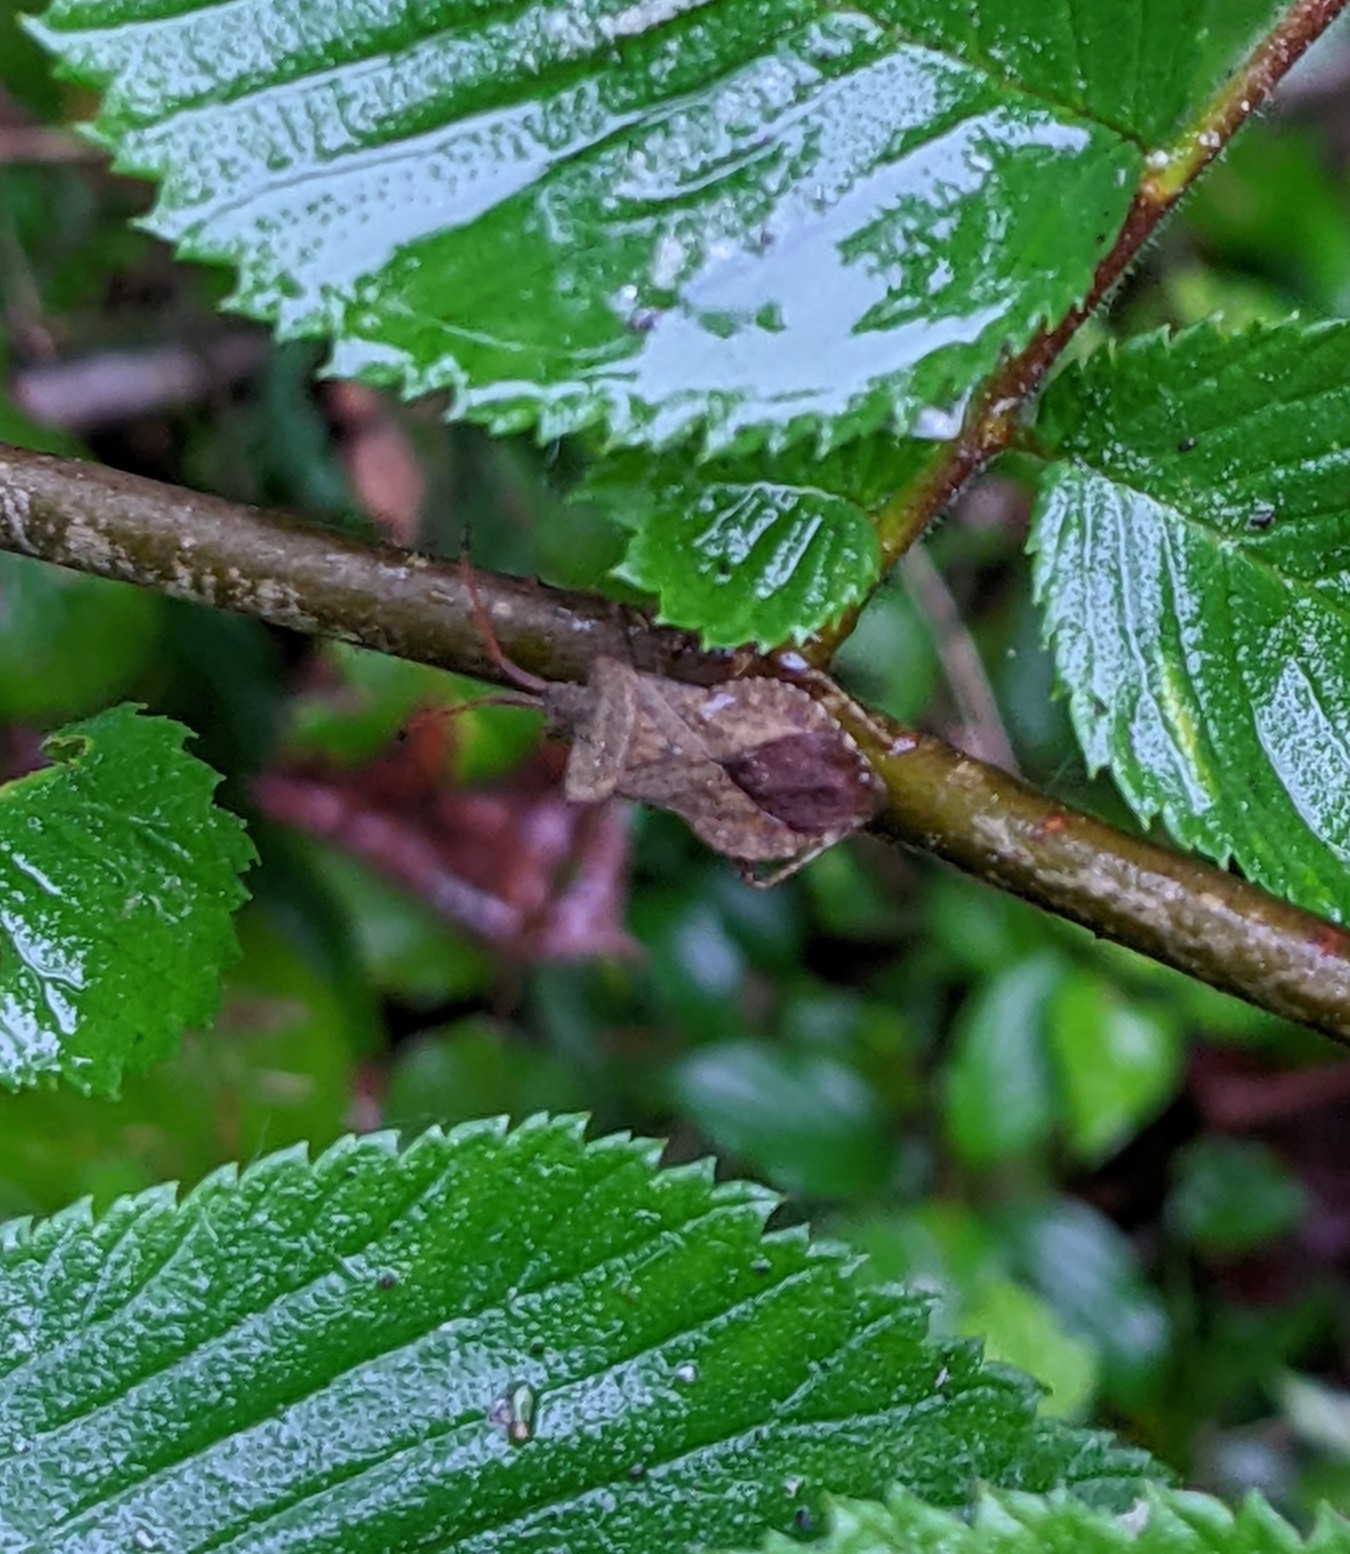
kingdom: Animalia
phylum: Arthropoda
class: Insecta
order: Hemiptera
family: Coreidae
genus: Coreus
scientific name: Coreus marginatus
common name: Dock bug
